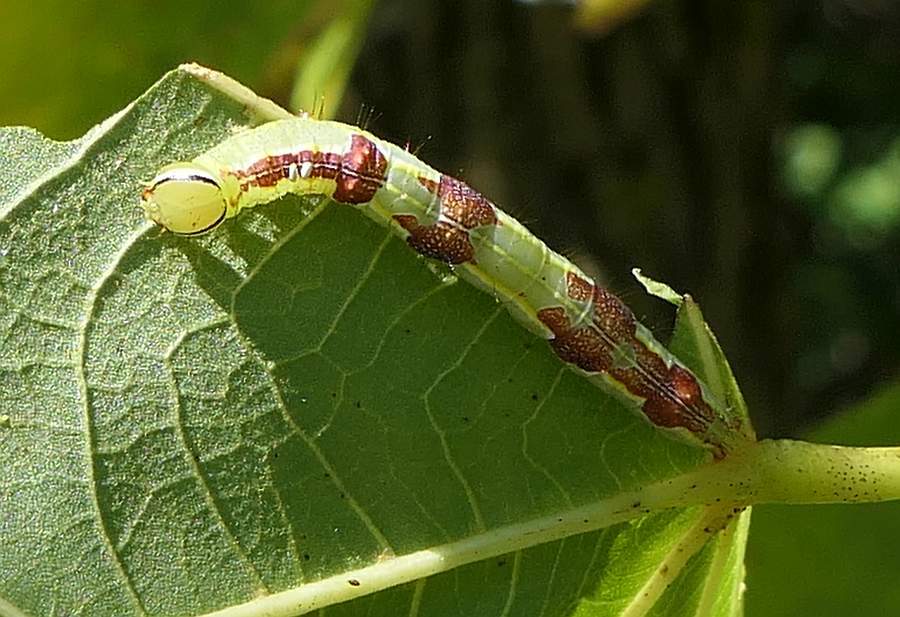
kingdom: Animalia
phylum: Arthropoda
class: Insecta
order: Lepidoptera
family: Notodontidae
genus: Lochmaeus
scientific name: Lochmaeus manteo
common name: Variable oakleaf caterpillar moth
